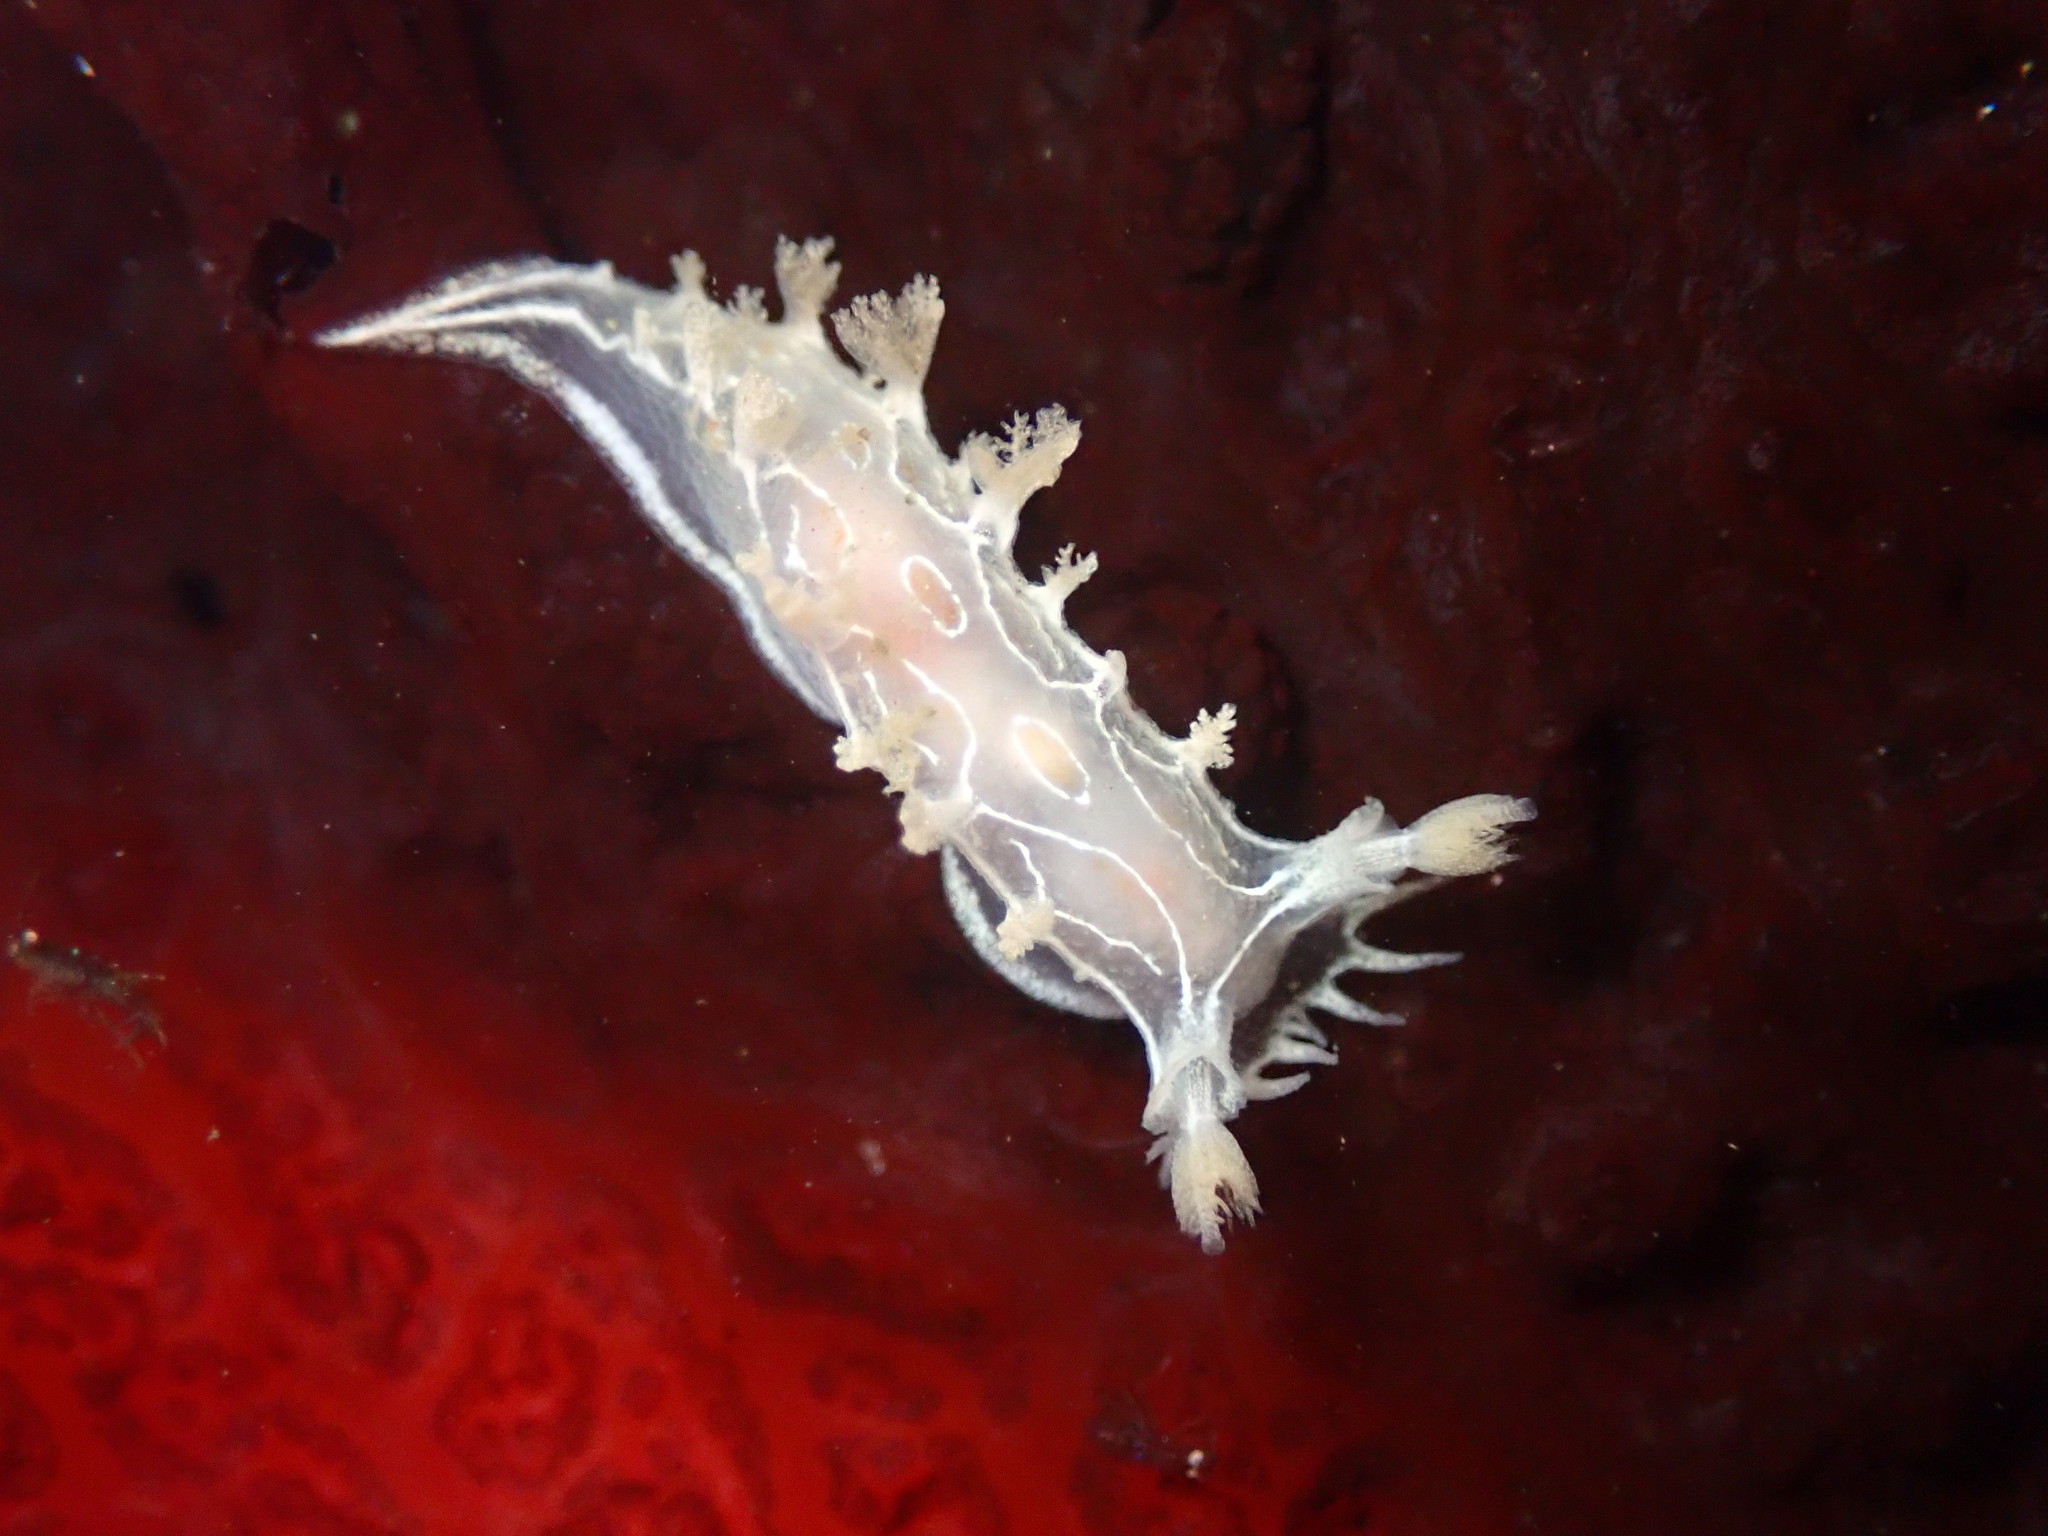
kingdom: Animalia
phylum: Mollusca
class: Gastropoda
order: Nudibranchia
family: Tritoniidae
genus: Tritonia
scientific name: Tritonia festiva
